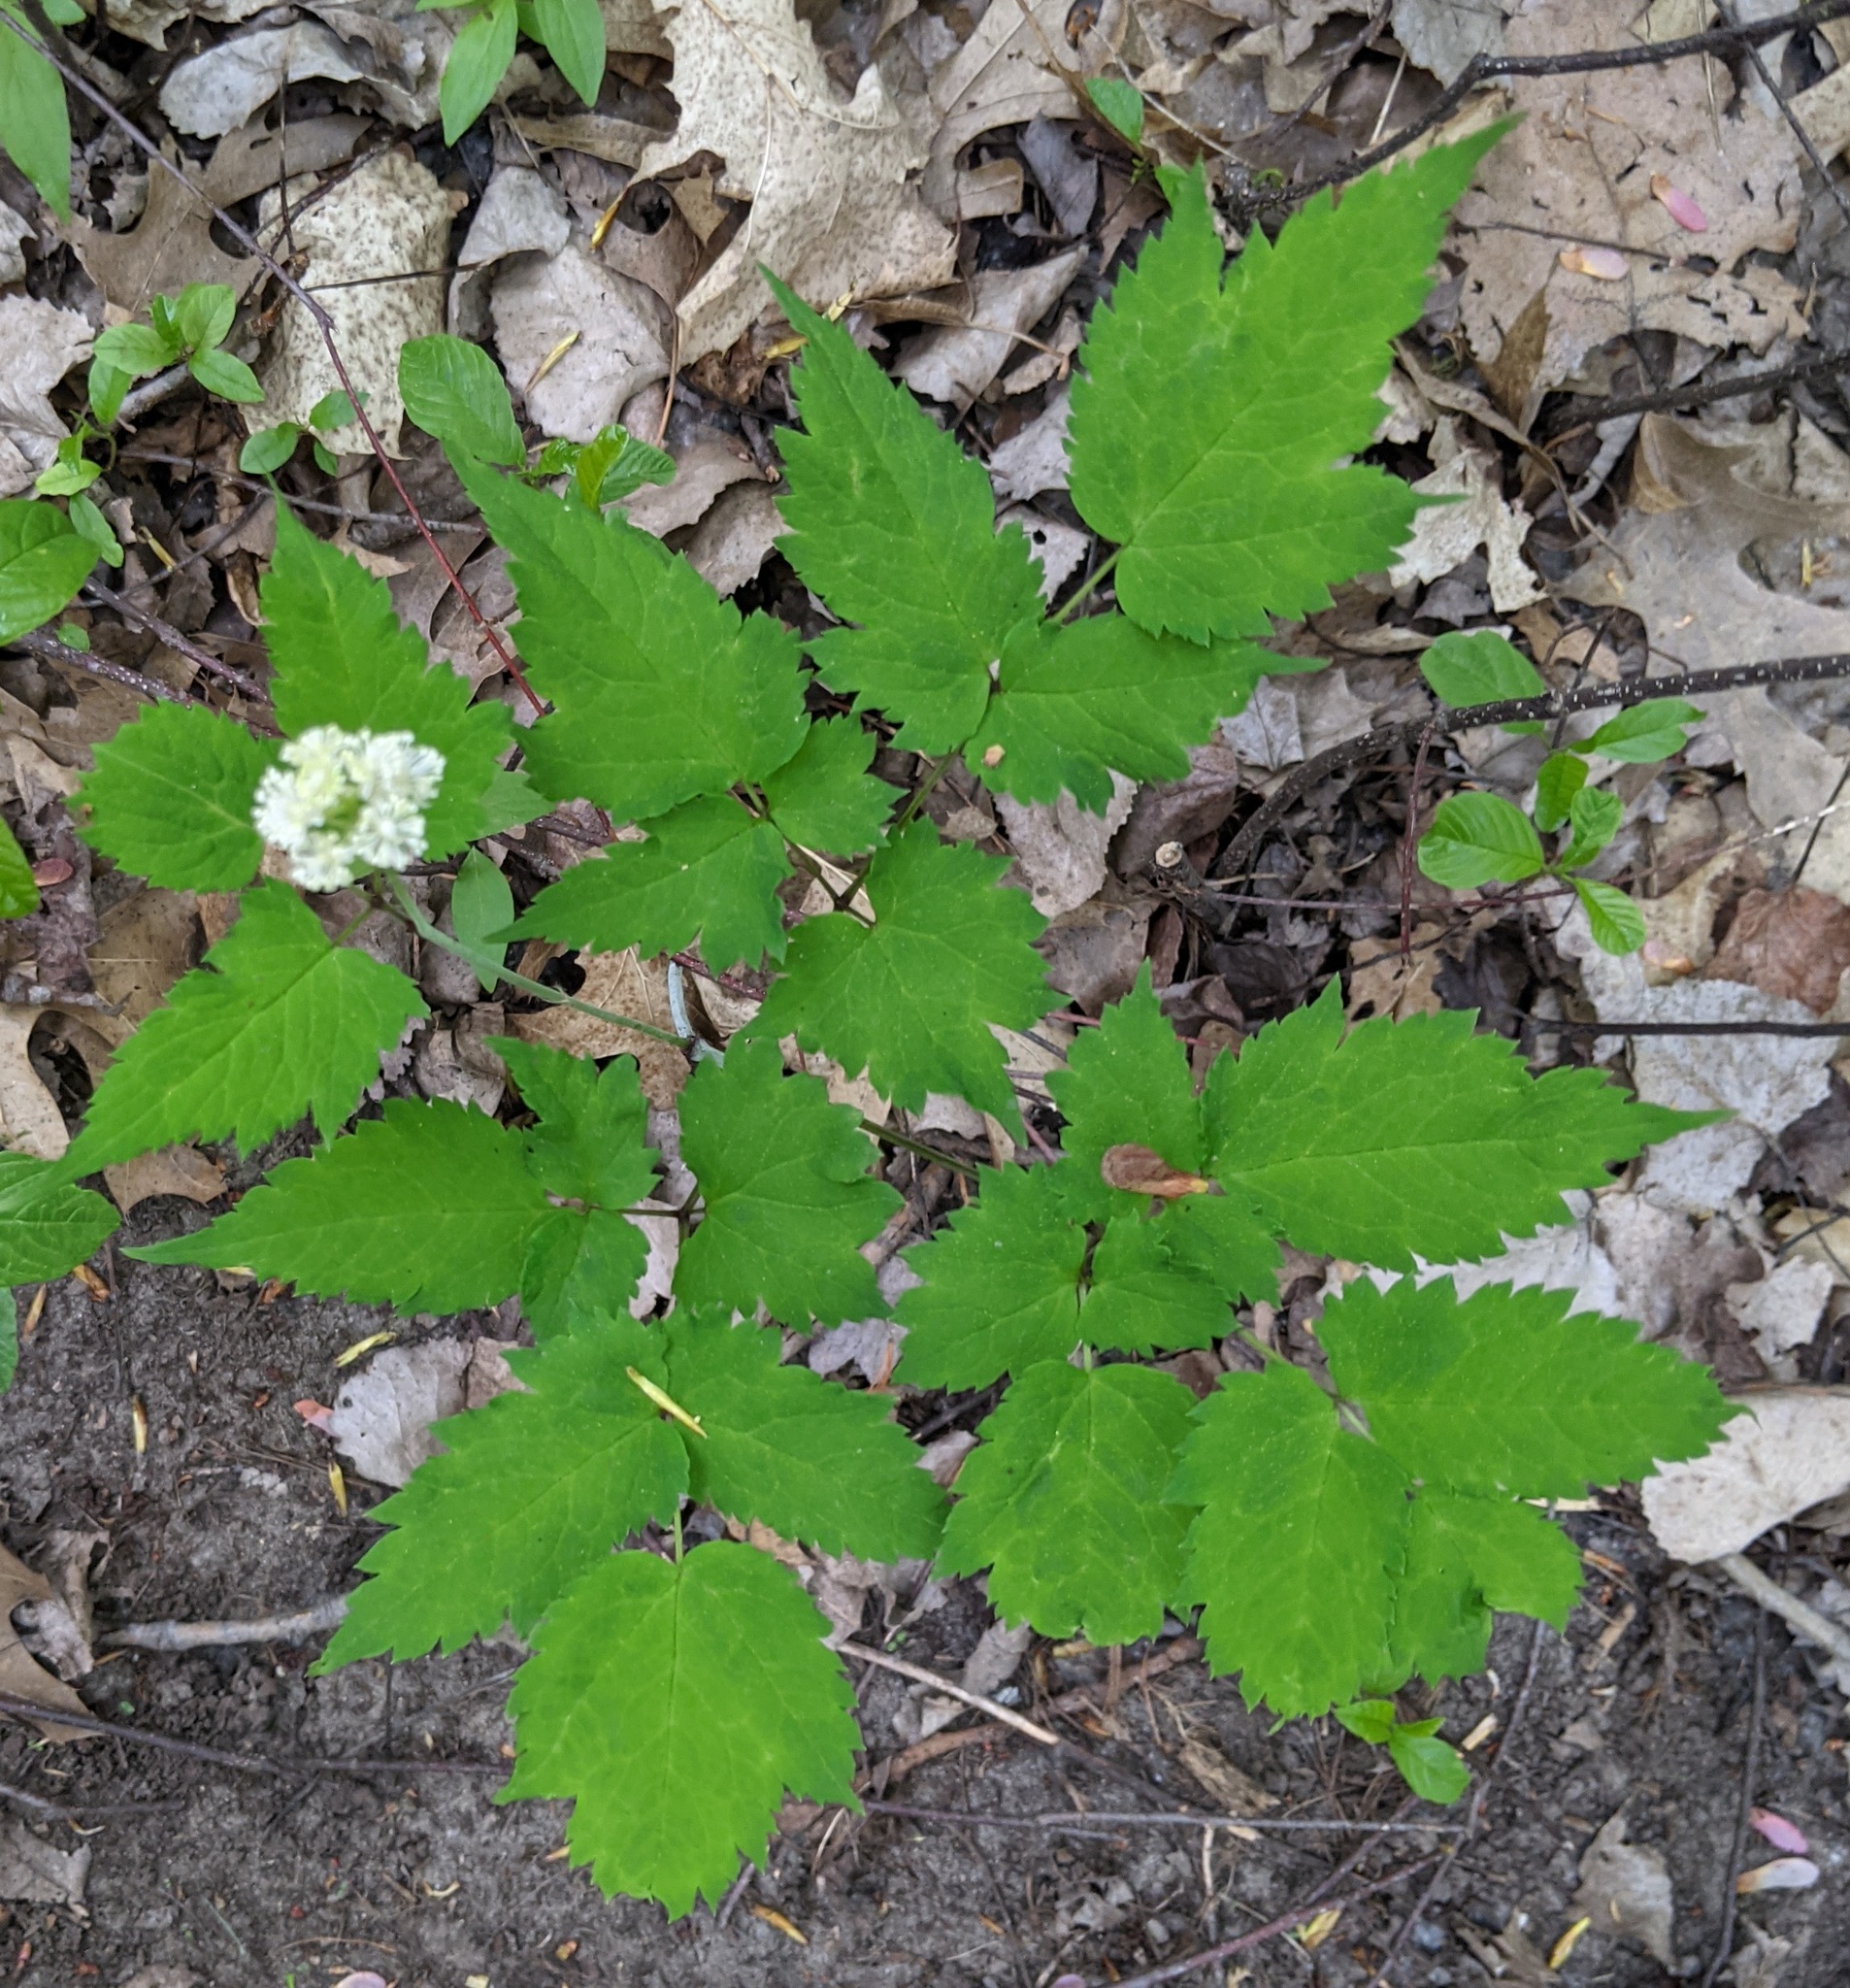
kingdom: Plantae
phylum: Tracheophyta
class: Magnoliopsida
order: Ranunculales
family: Ranunculaceae
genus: Actaea
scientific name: Actaea pachypoda
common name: Doll's-eyes
